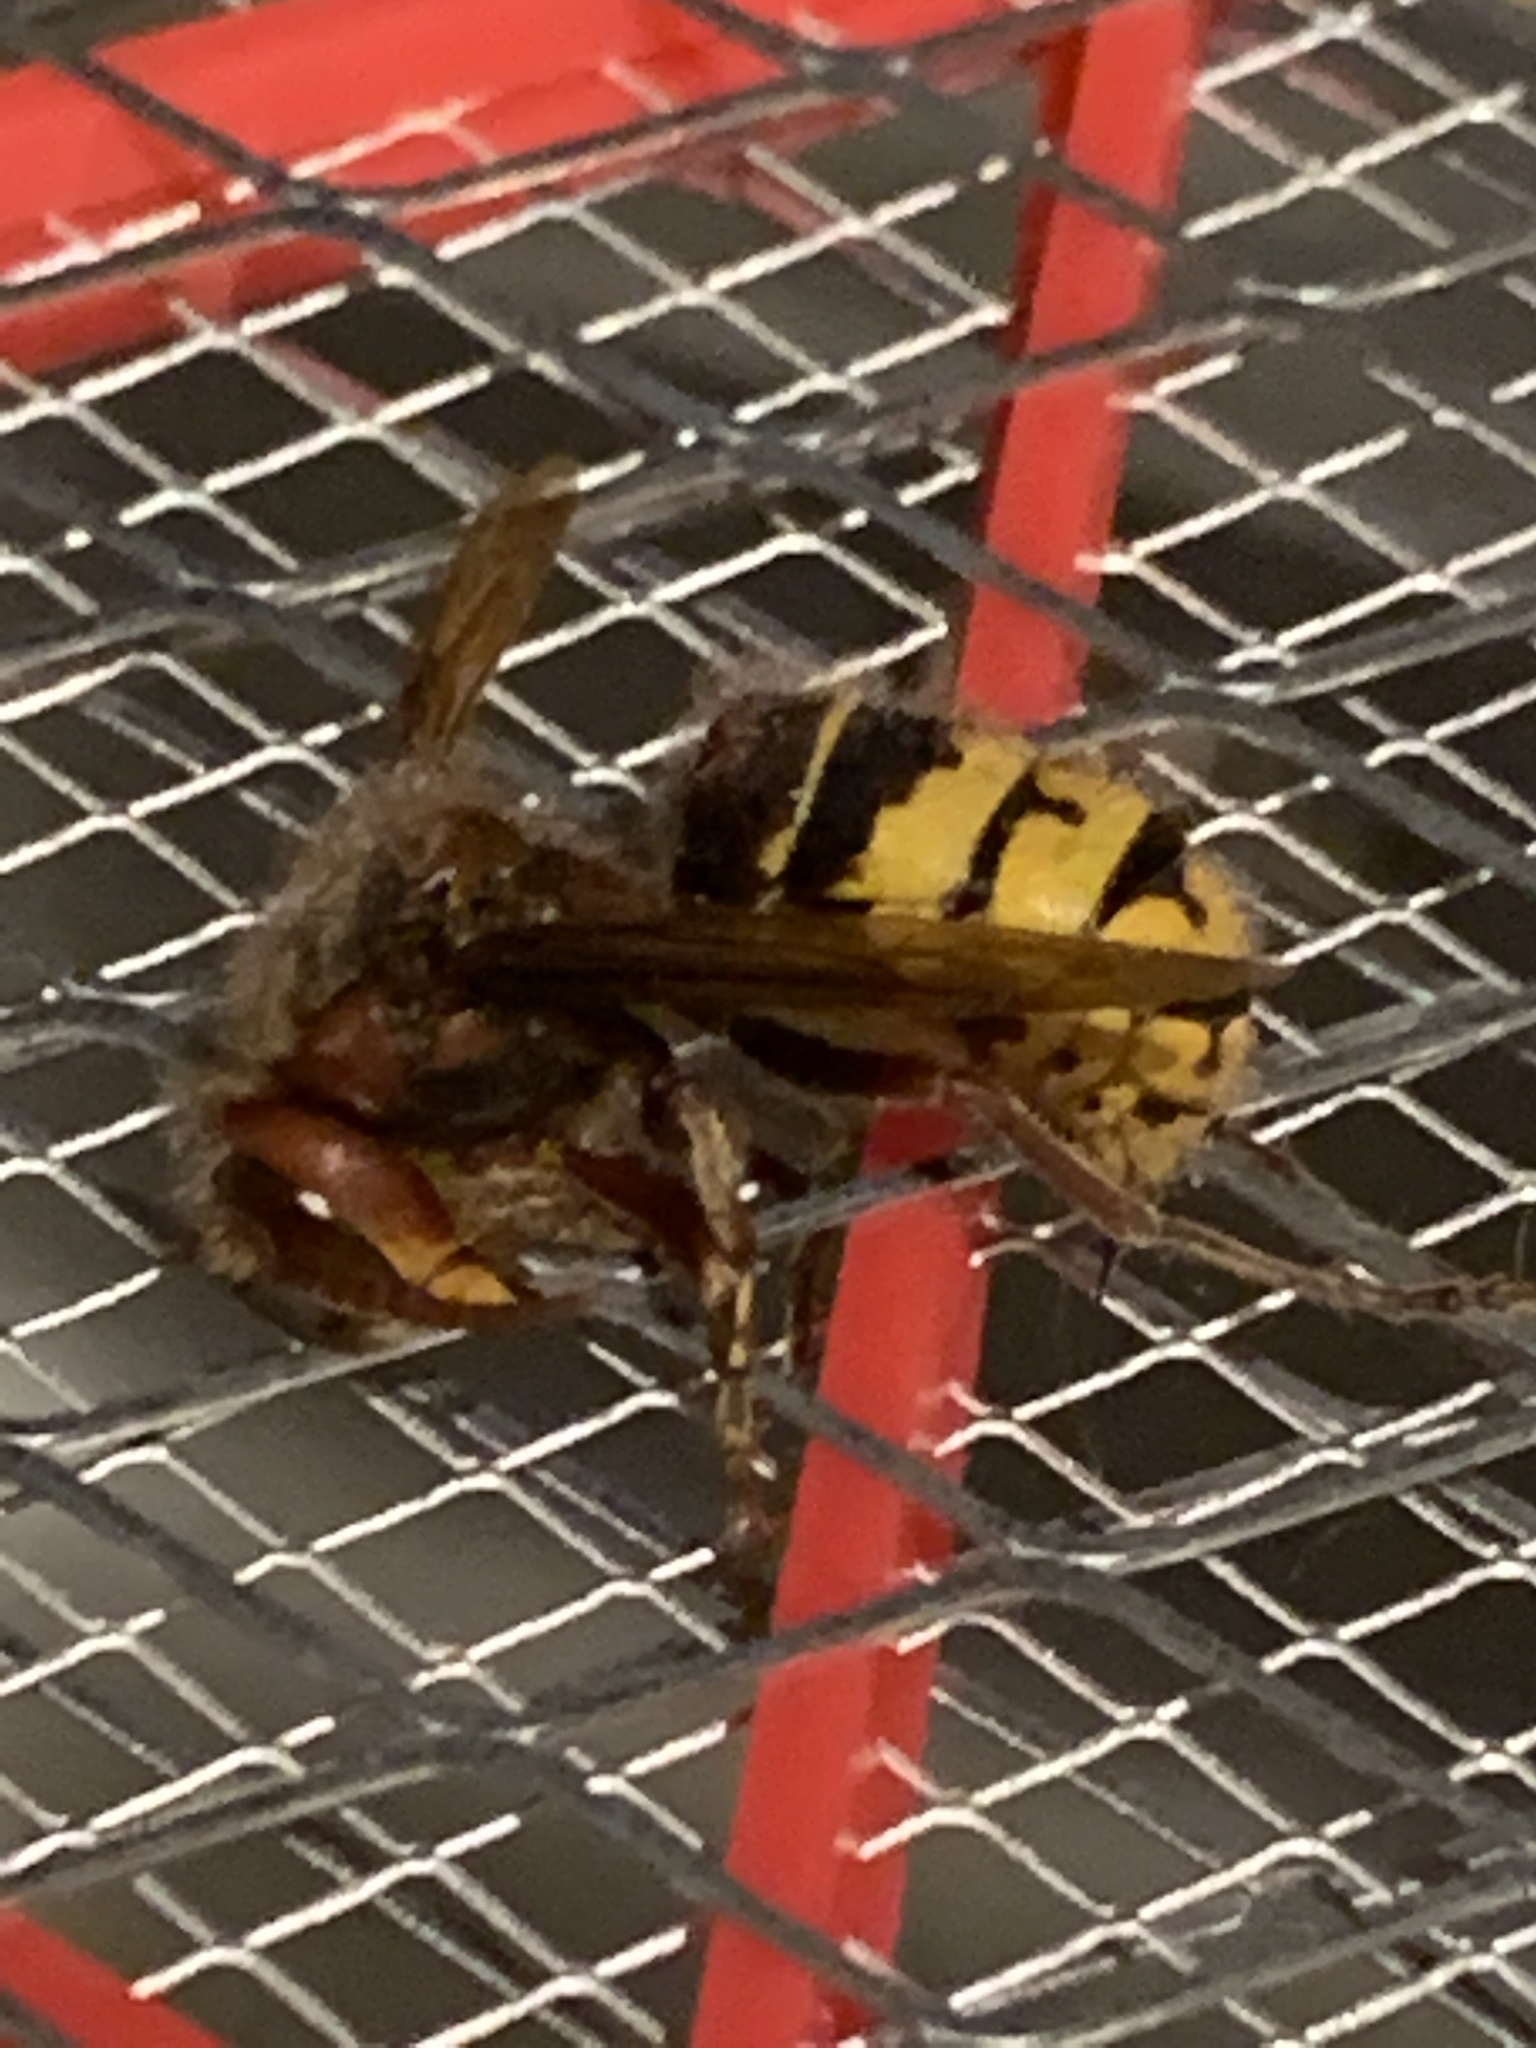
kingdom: Animalia
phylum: Arthropoda
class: Insecta
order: Hymenoptera
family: Vespidae
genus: Vespa
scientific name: Vespa crabro
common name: Hornet
